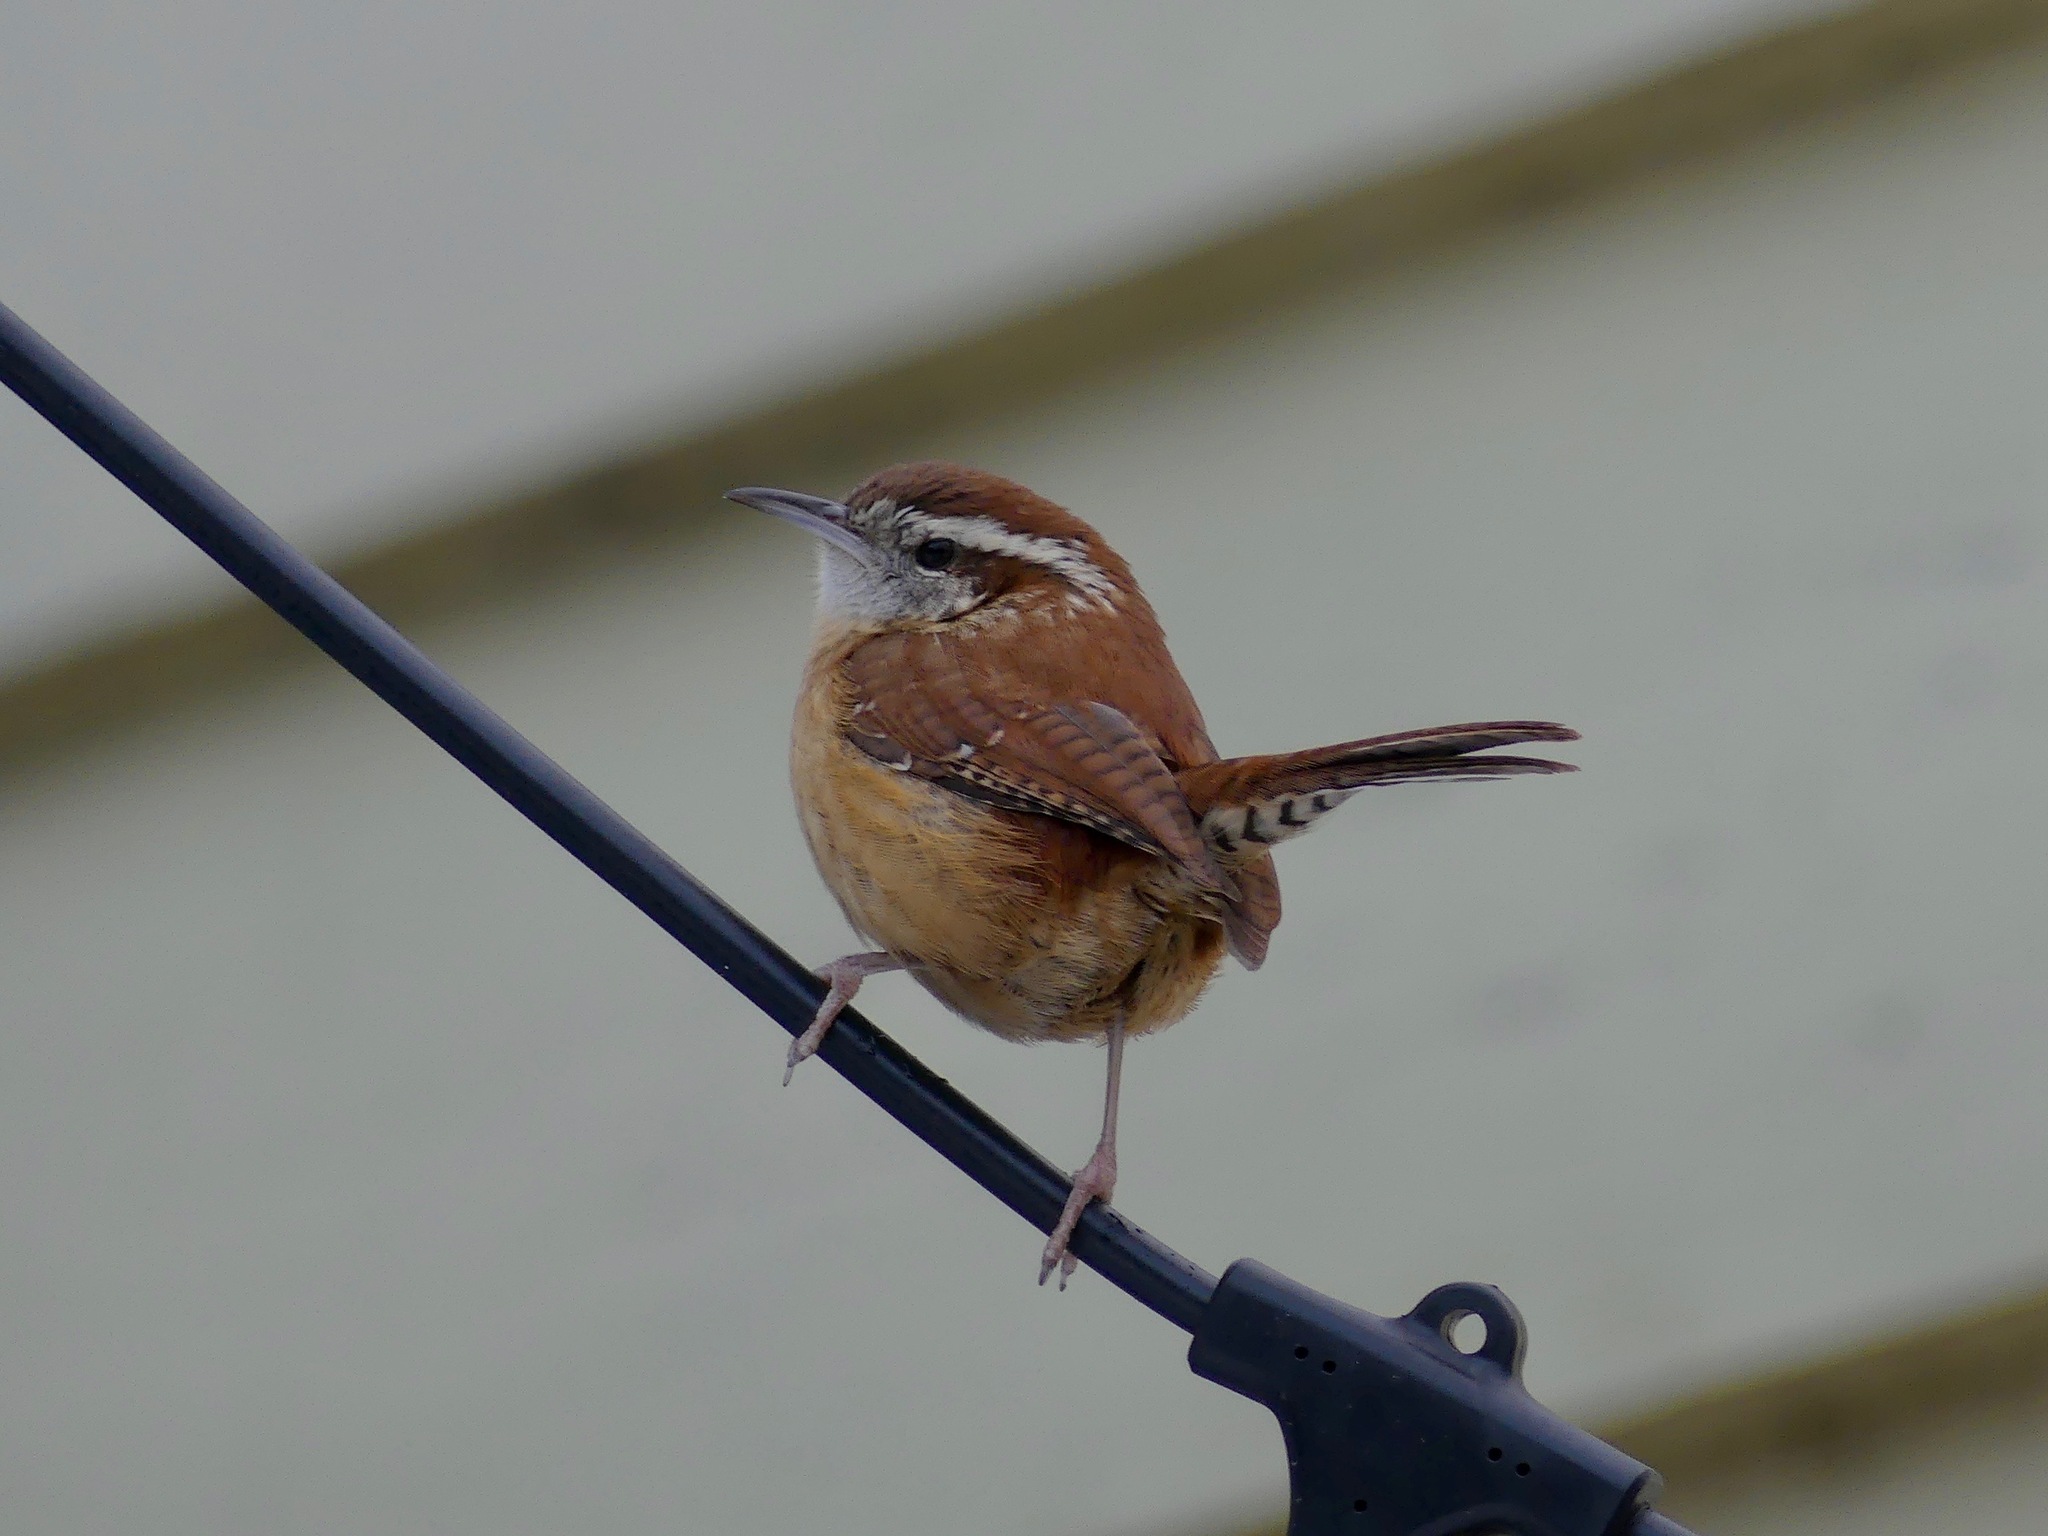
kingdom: Animalia
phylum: Chordata
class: Aves
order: Passeriformes
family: Troglodytidae
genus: Thryothorus
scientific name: Thryothorus ludovicianus
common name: Carolina wren
